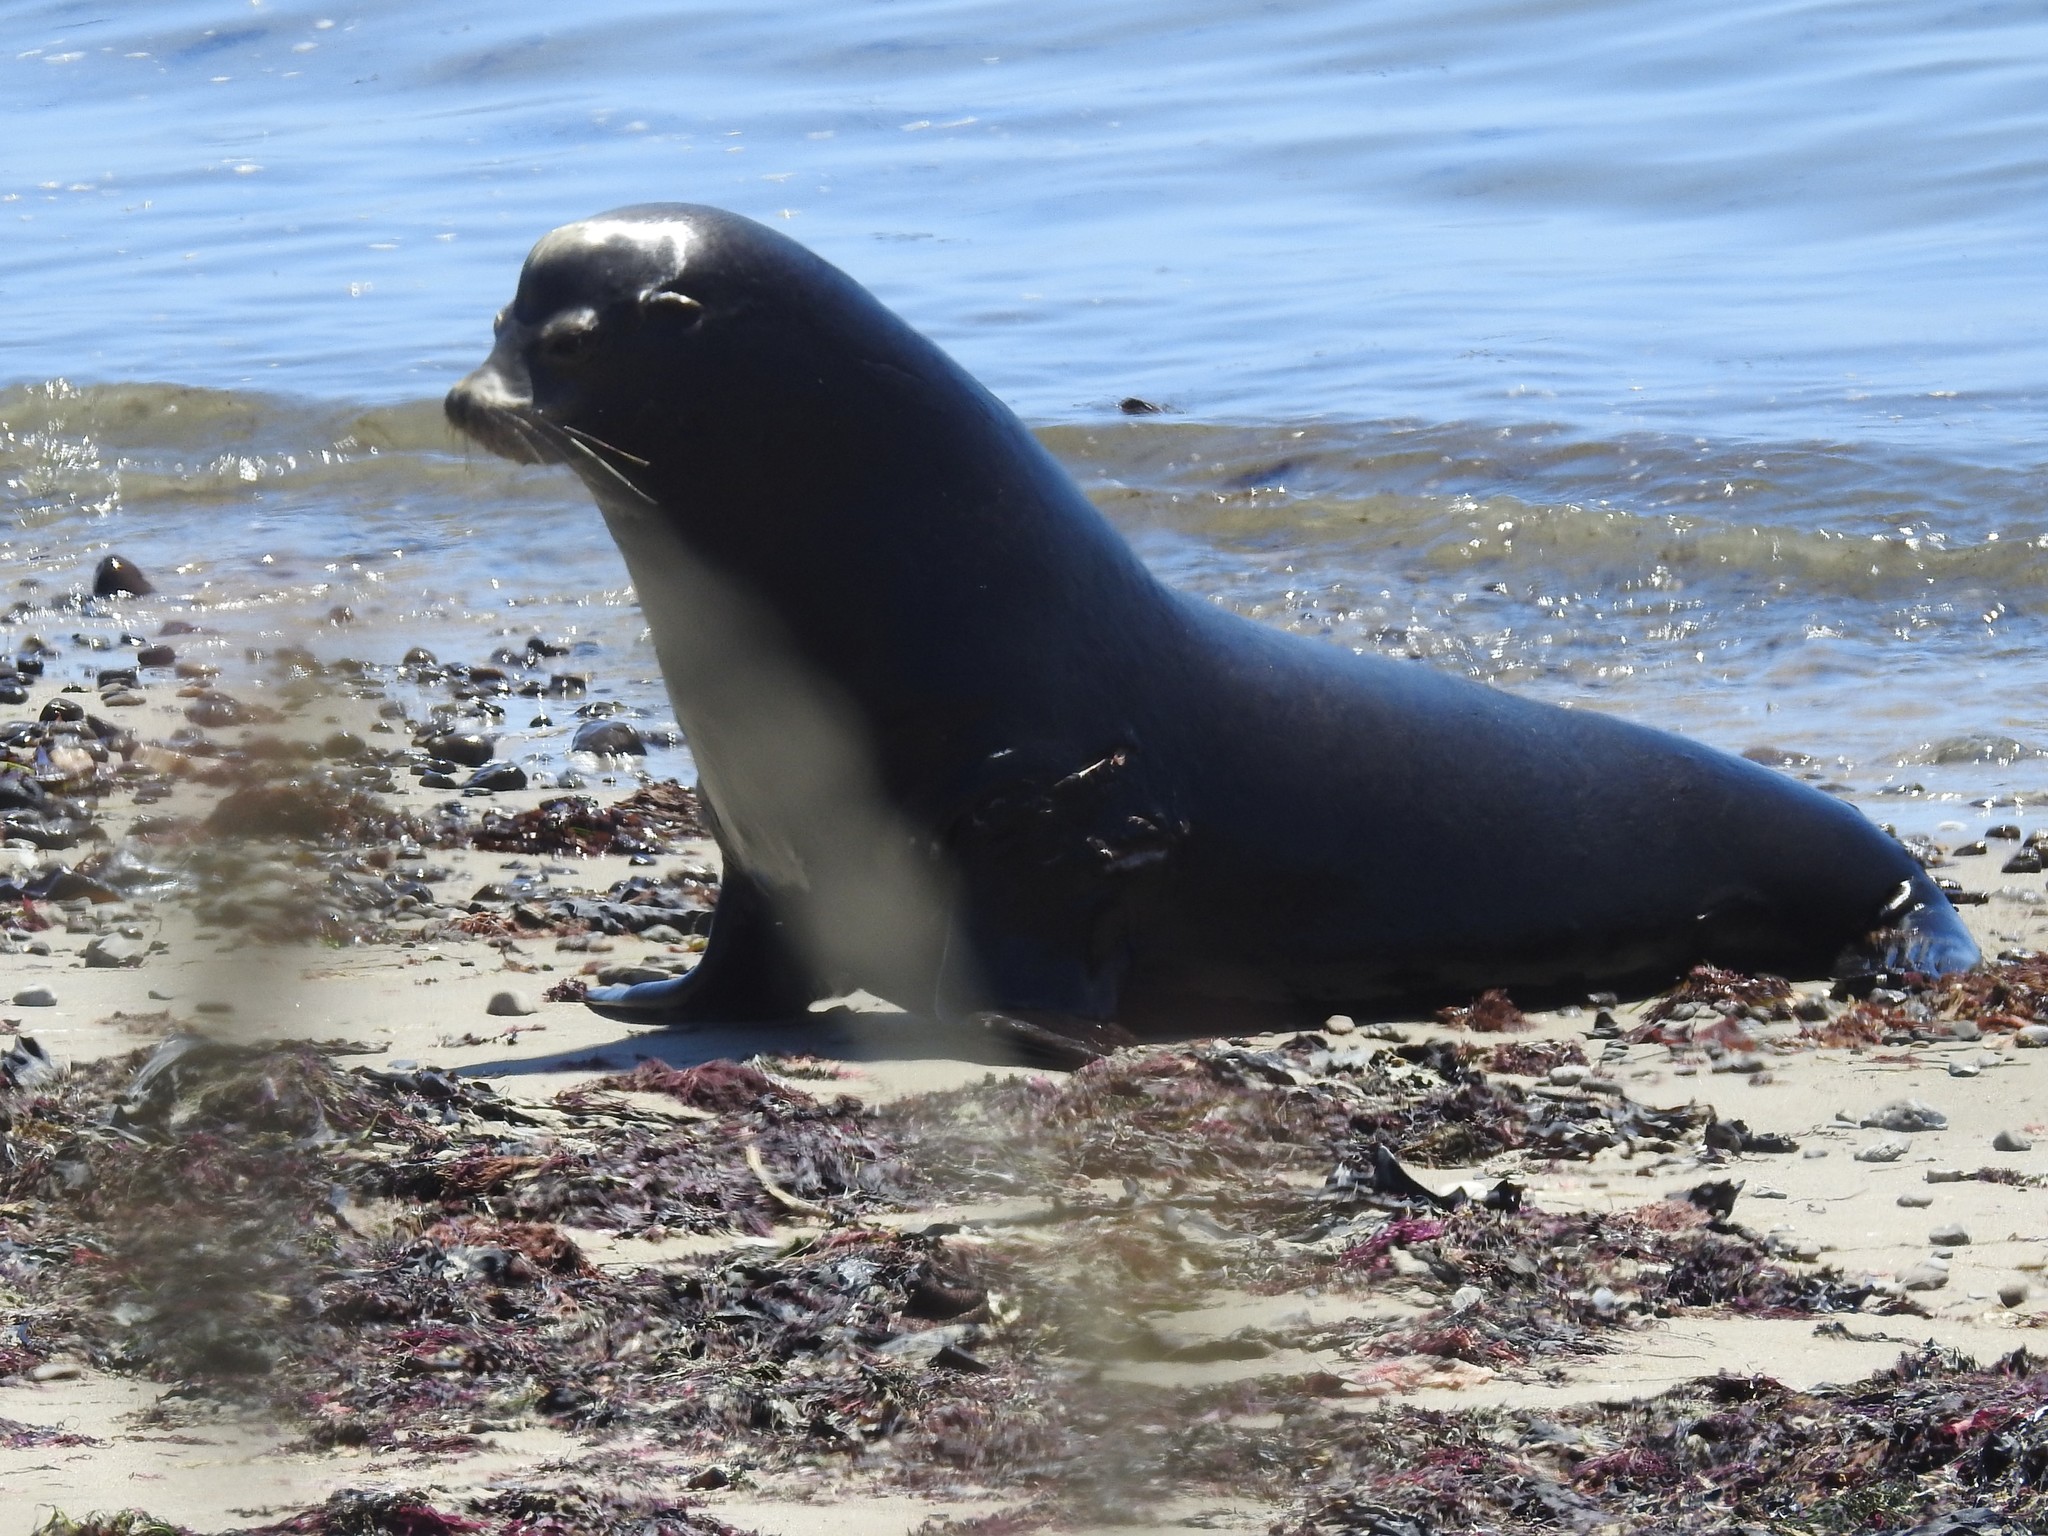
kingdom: Animalia
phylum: Chordata
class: Mammalia
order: Carnivora
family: Otariidae
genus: Zalophus
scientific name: Zalophus californianus
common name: California sea lion
